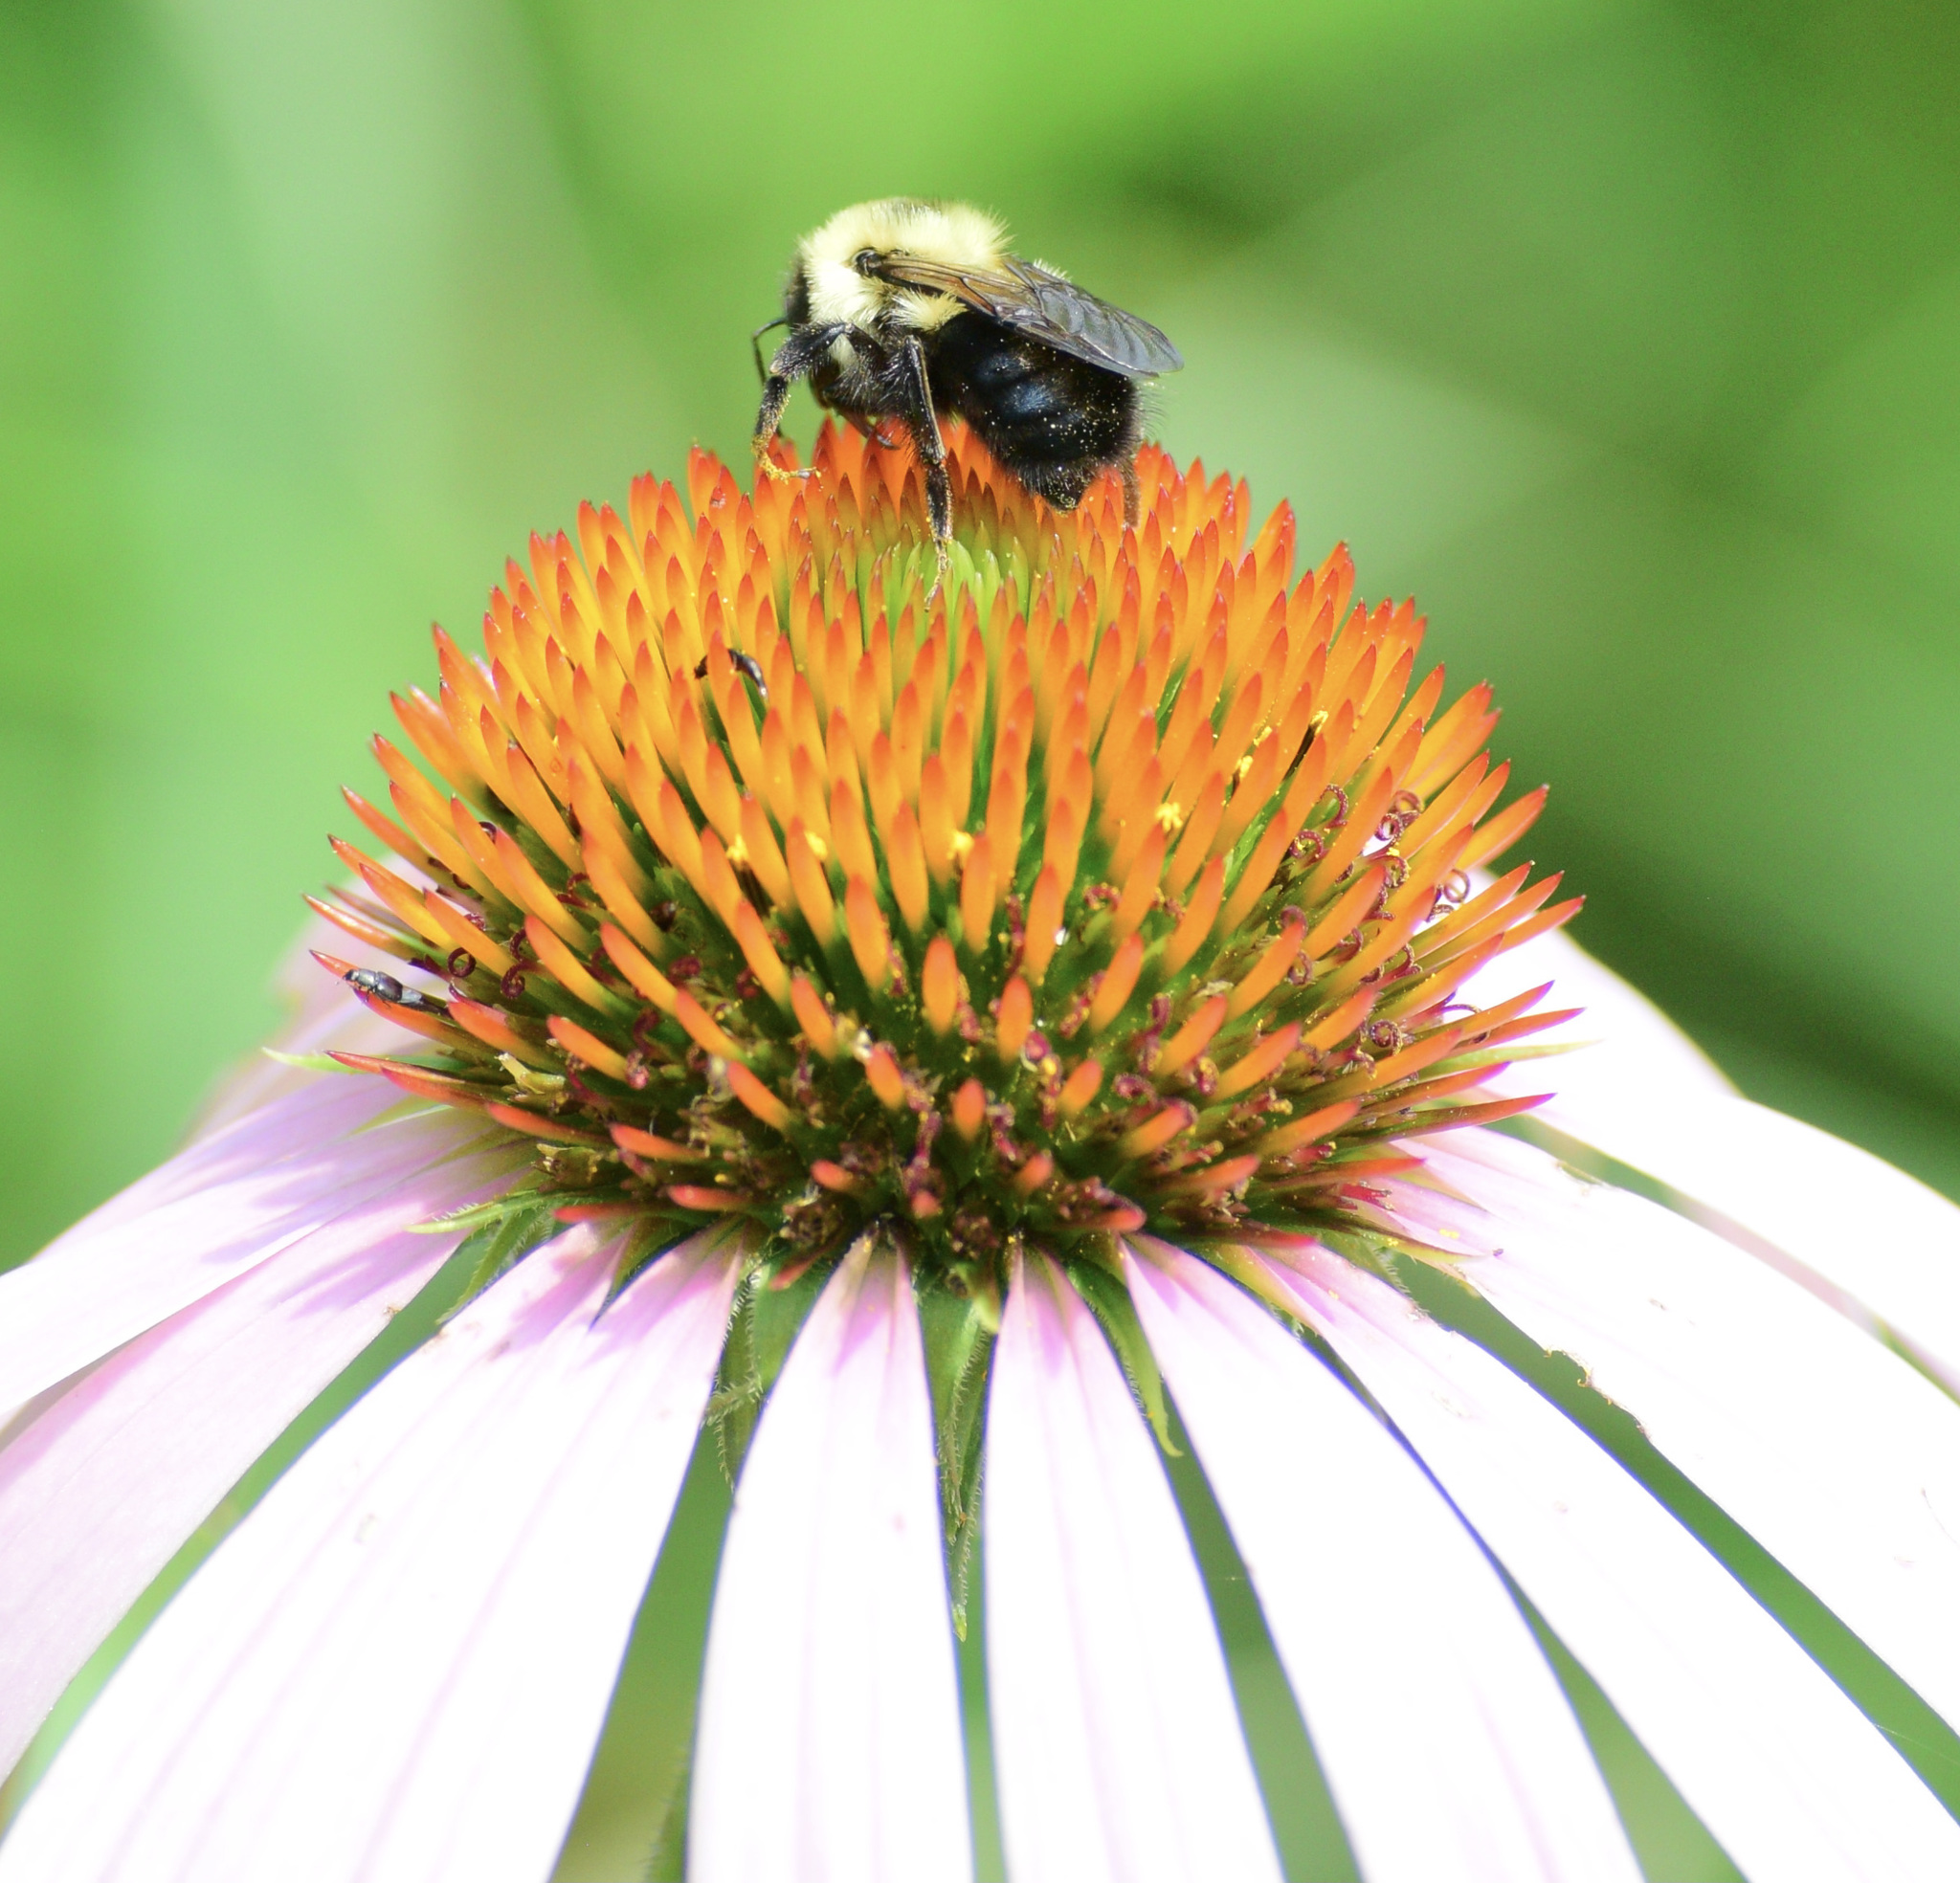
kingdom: Animalia
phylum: Arthropoda
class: Insecta
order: Hymenoptera
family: Apidae
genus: Bombus
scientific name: Bombus bimaculatus
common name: Two-spotted bumble bee
